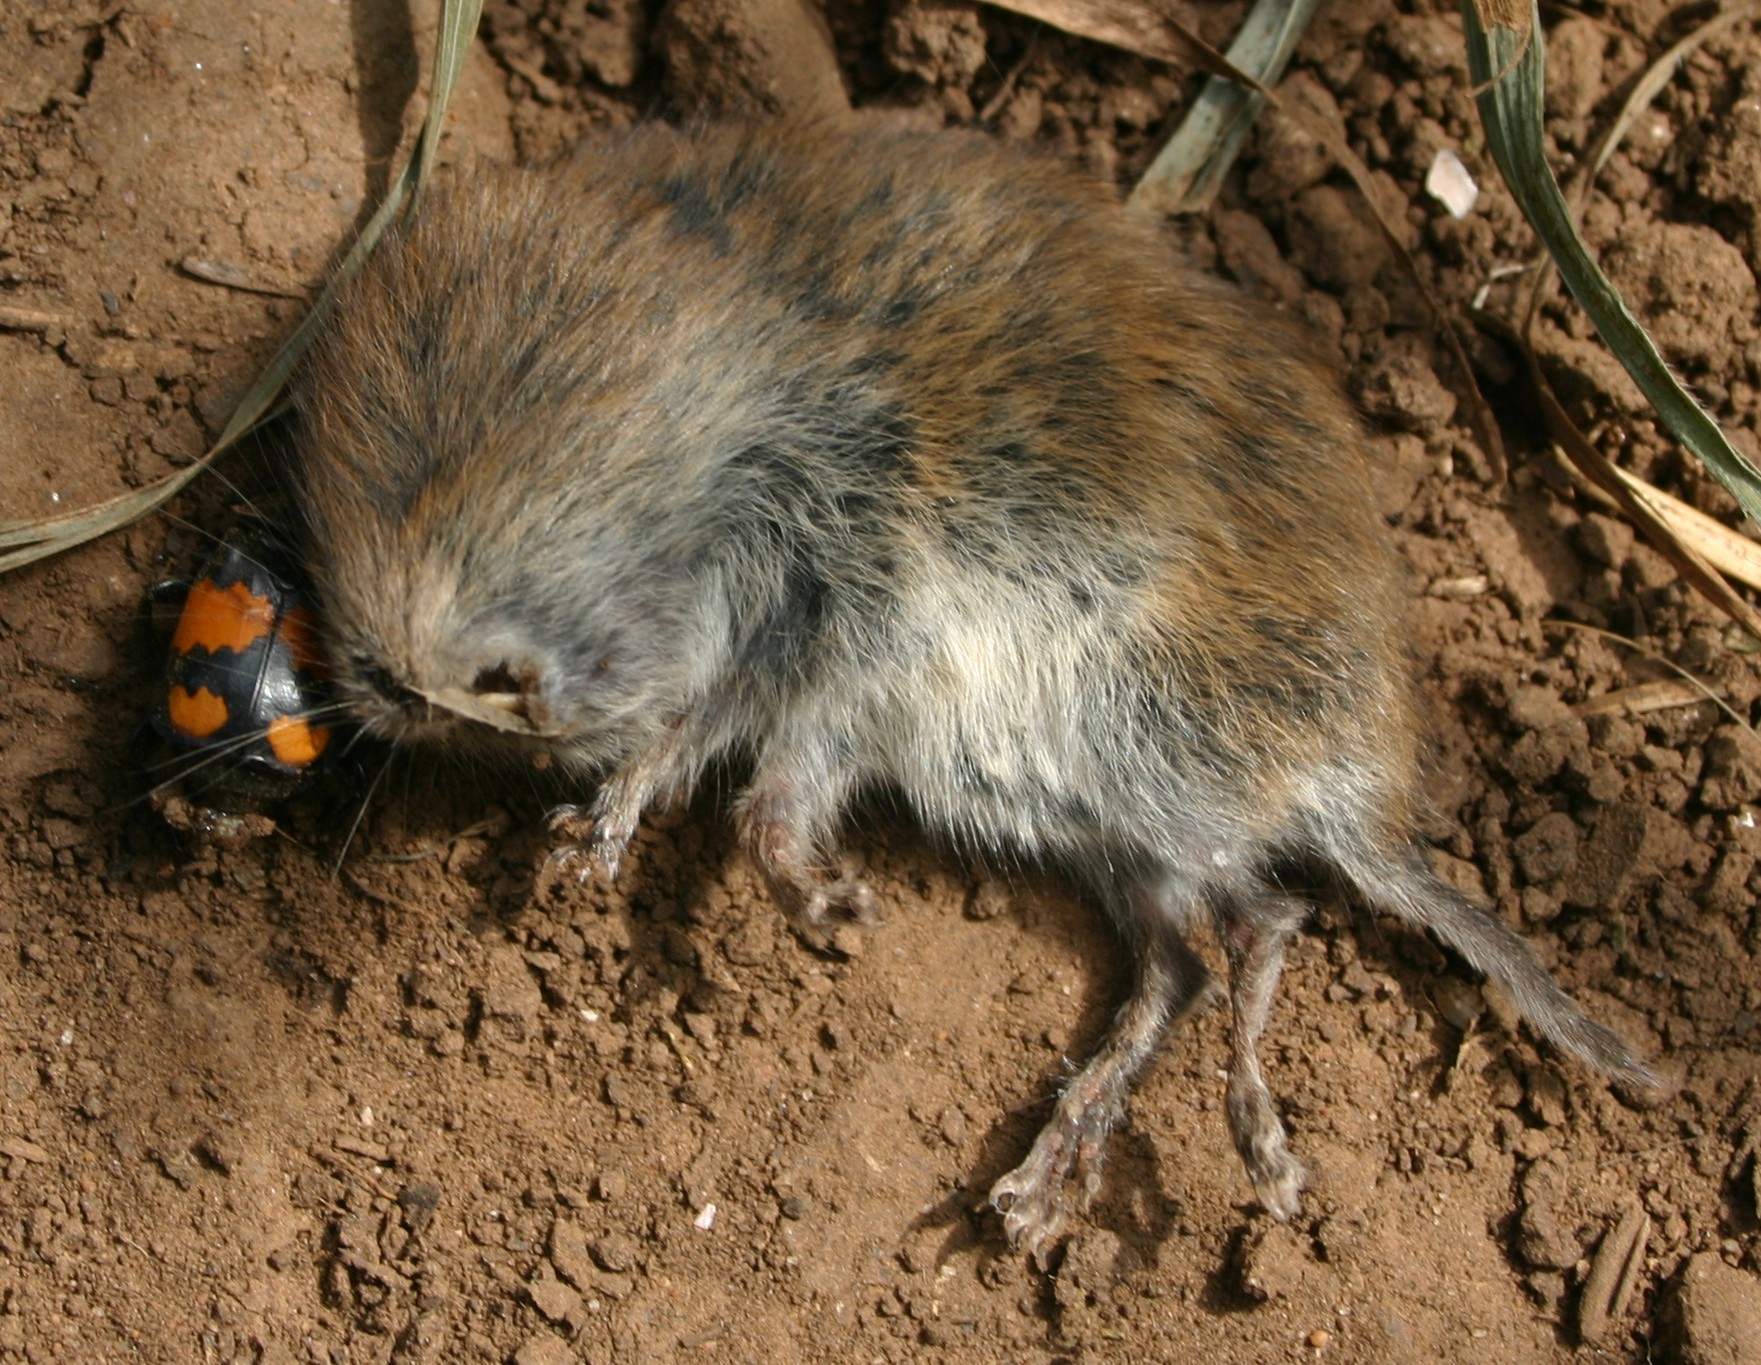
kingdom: Animalia
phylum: Arthropoda
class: Insecta
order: Coleoptera
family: Staphylinidae
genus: Nicrophorus
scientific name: Nicrophorus vespilloides
